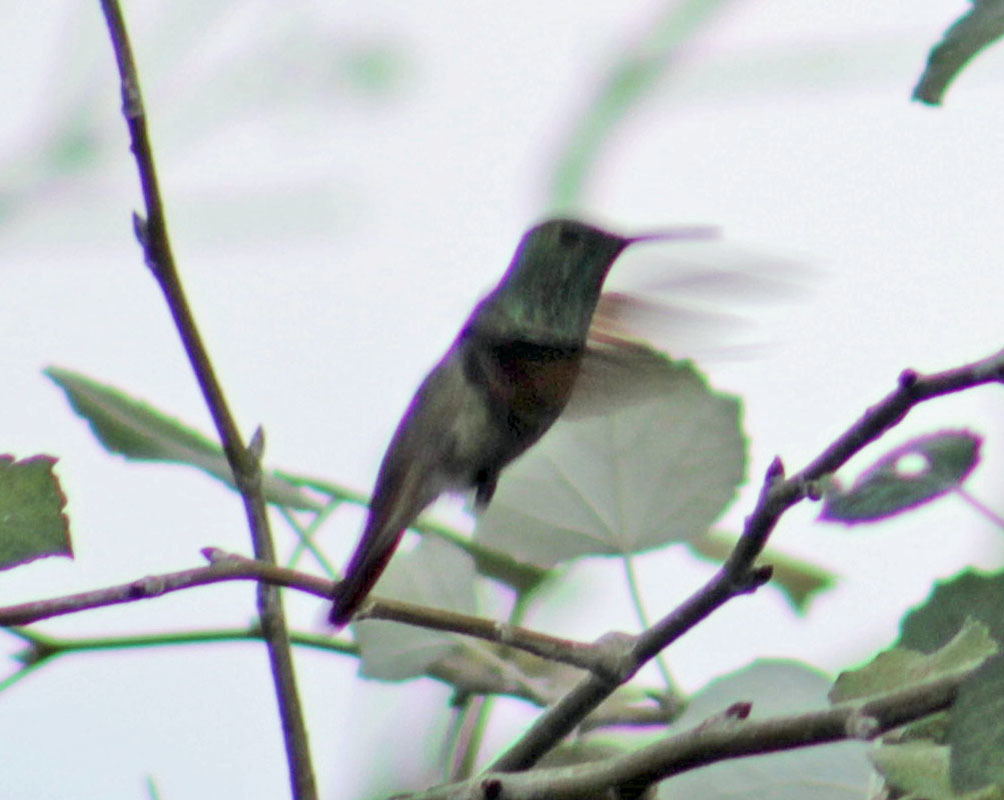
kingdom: Animalia
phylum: Chordata
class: Aves
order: Apodiformes
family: Trochilidae
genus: Saucerottia
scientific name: Saucerottia beryllina
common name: Berylline hummingbird
